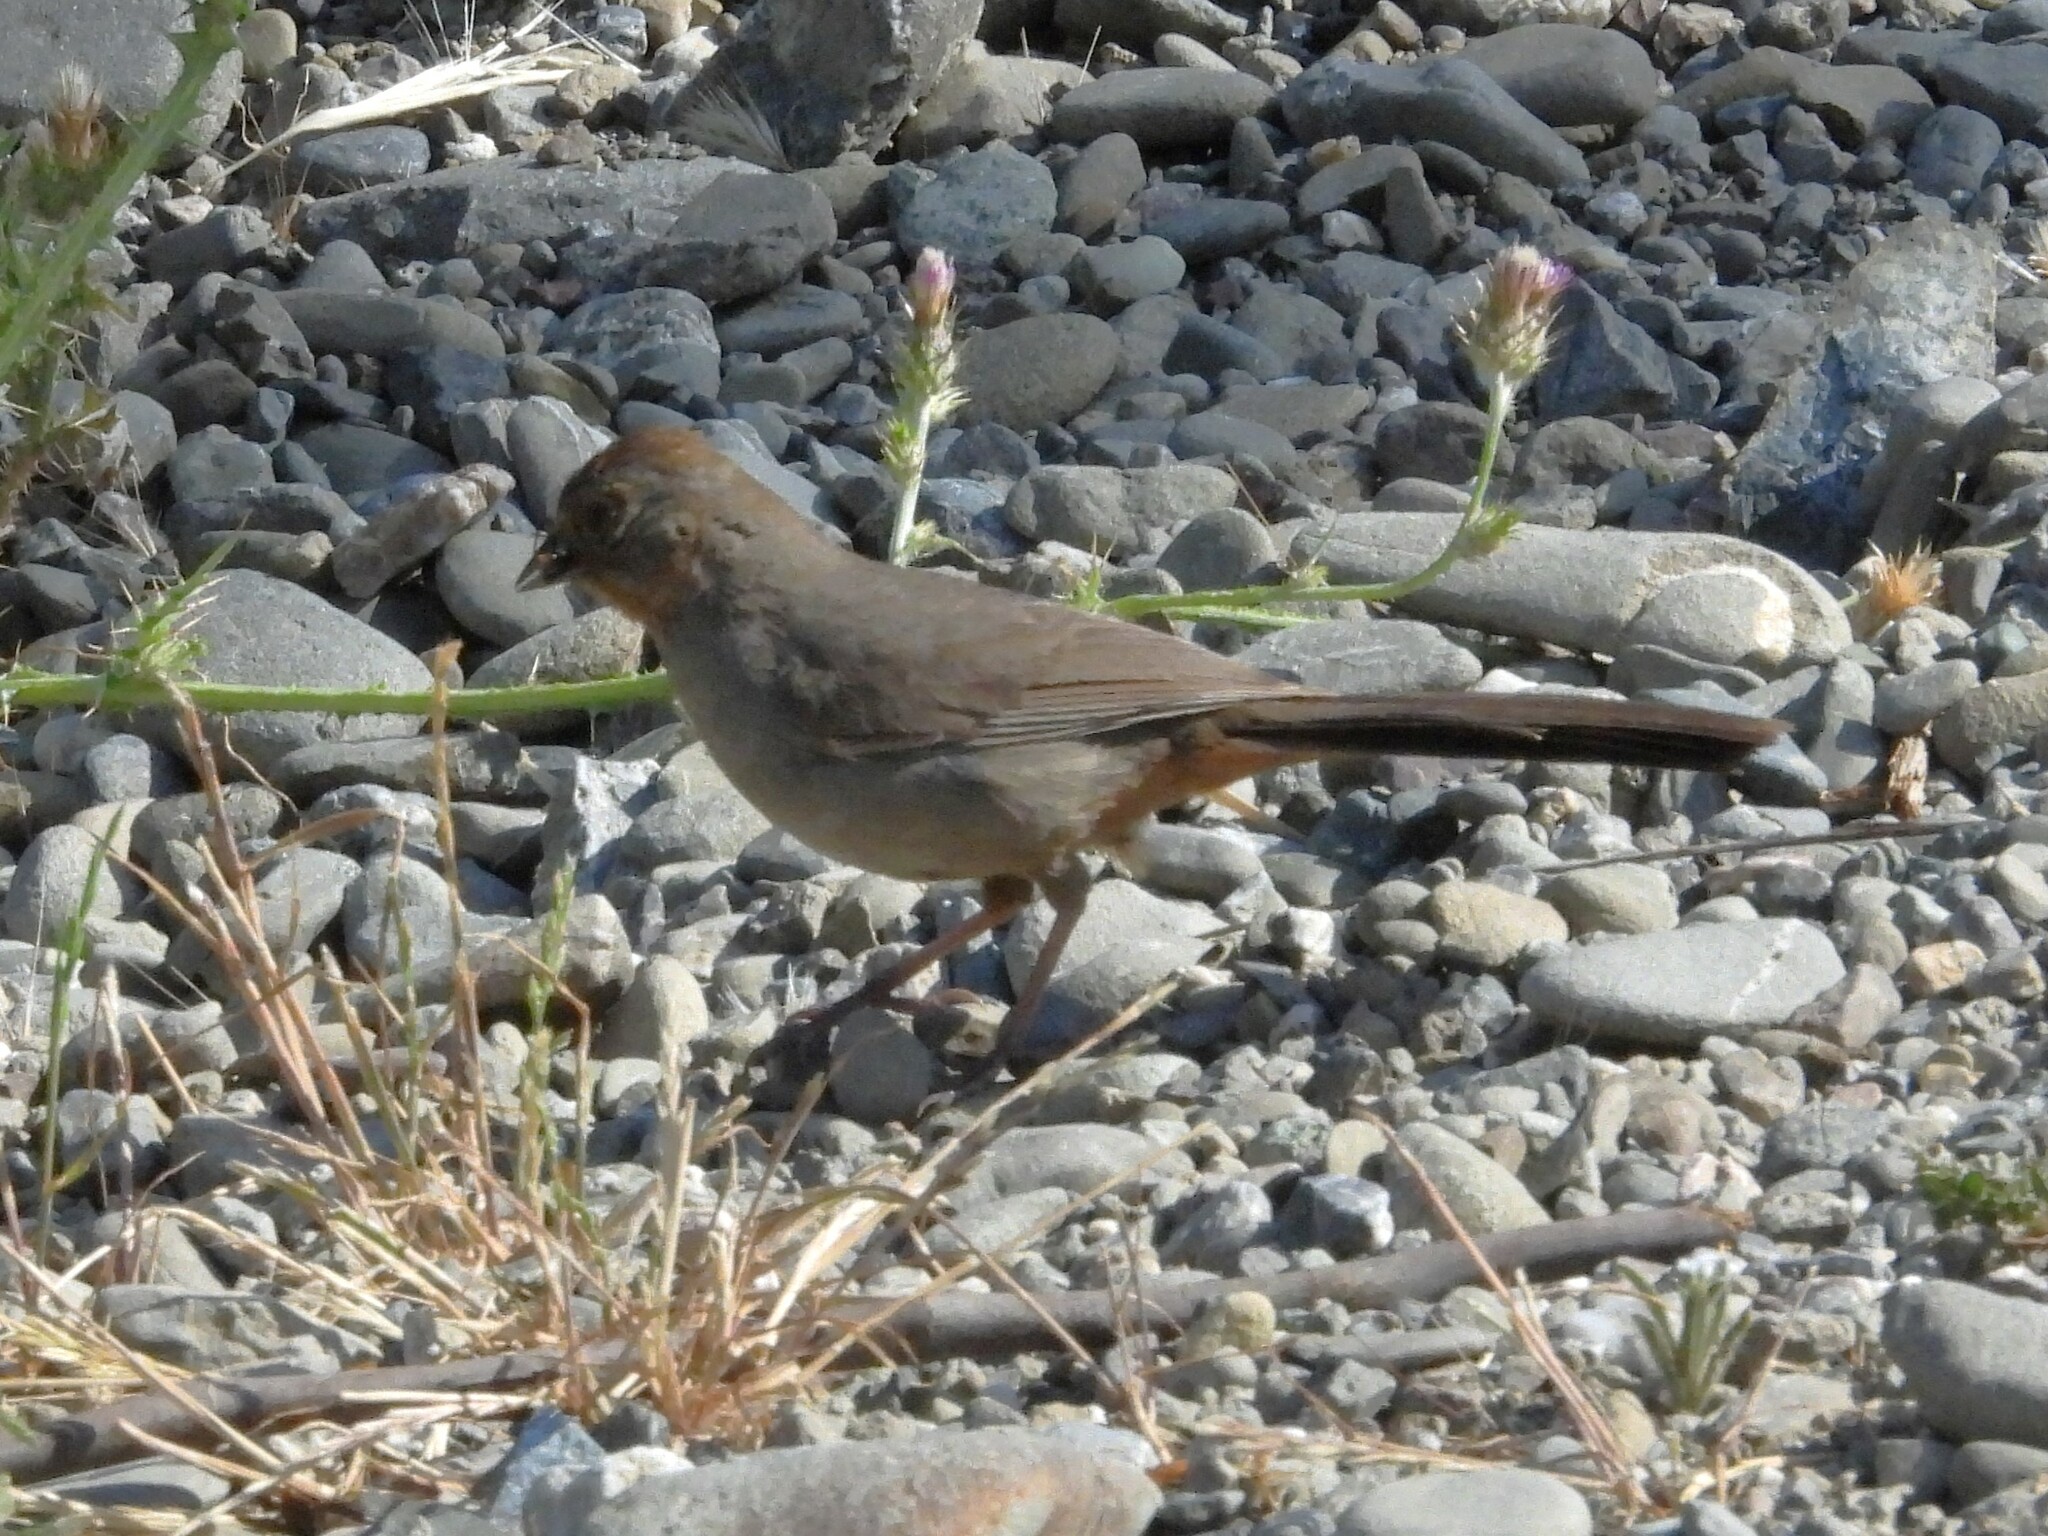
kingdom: Animalia
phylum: Chordata
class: Aves
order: Passeriformes
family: Passerellidae
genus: Melozone
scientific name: Melozone crissalis
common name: California towhee
